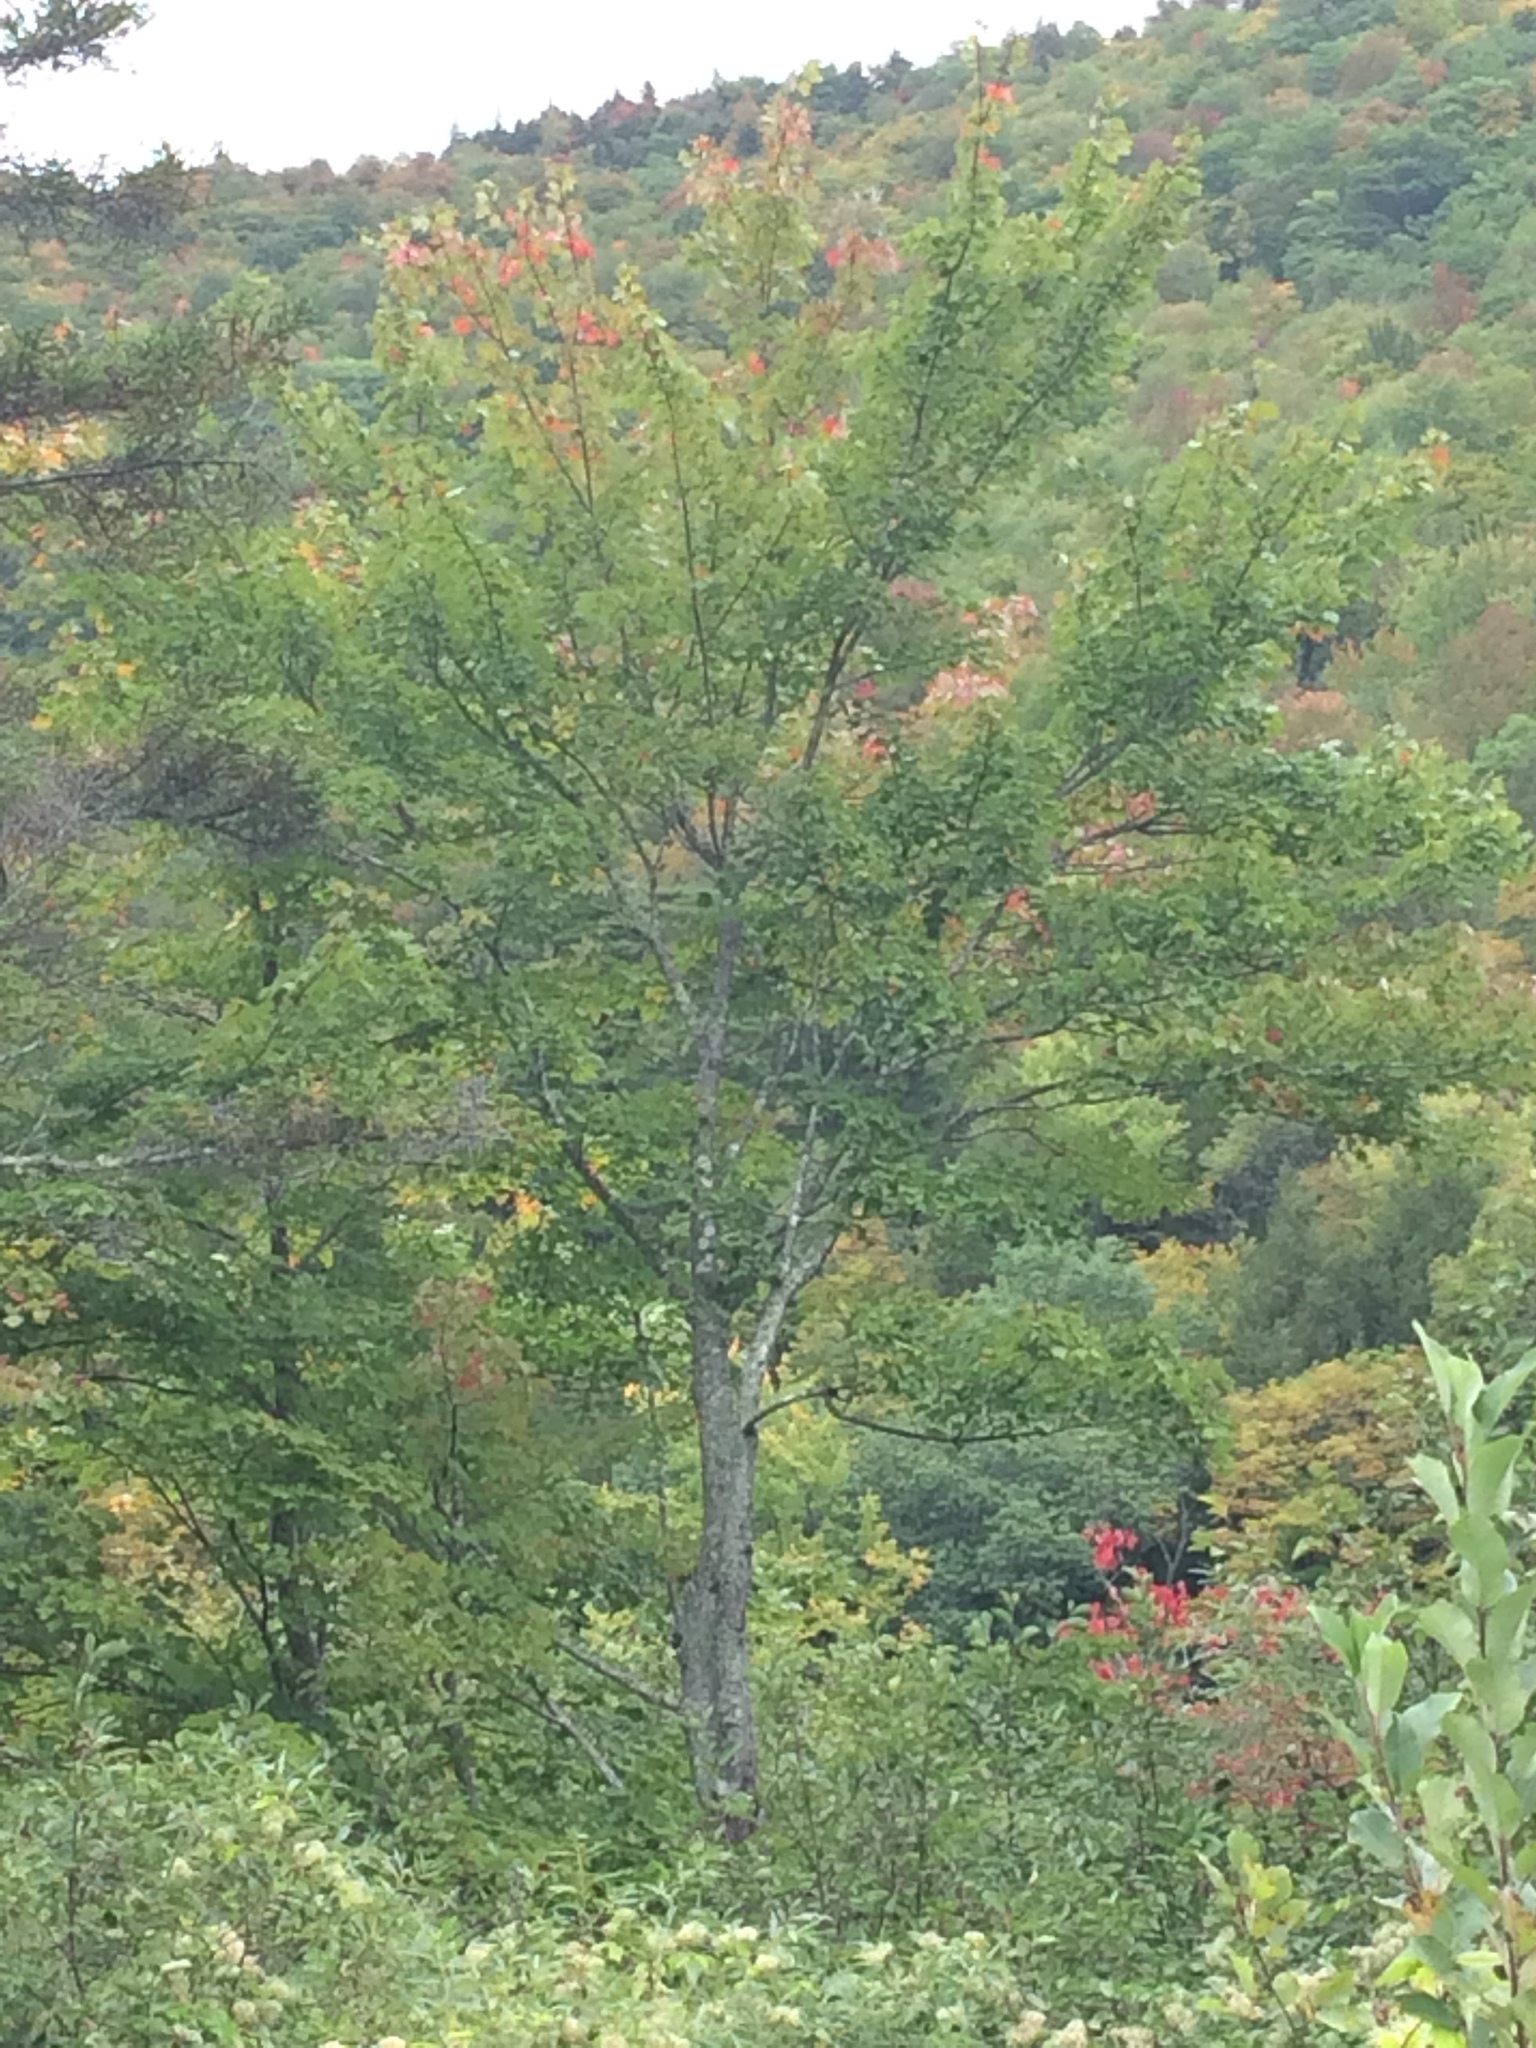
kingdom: Plantae
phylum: Tracheophyta
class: Magnoliopsida
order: Sapindales
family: Sapindaceae
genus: Acer
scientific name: Acer rubrum
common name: Red maple
